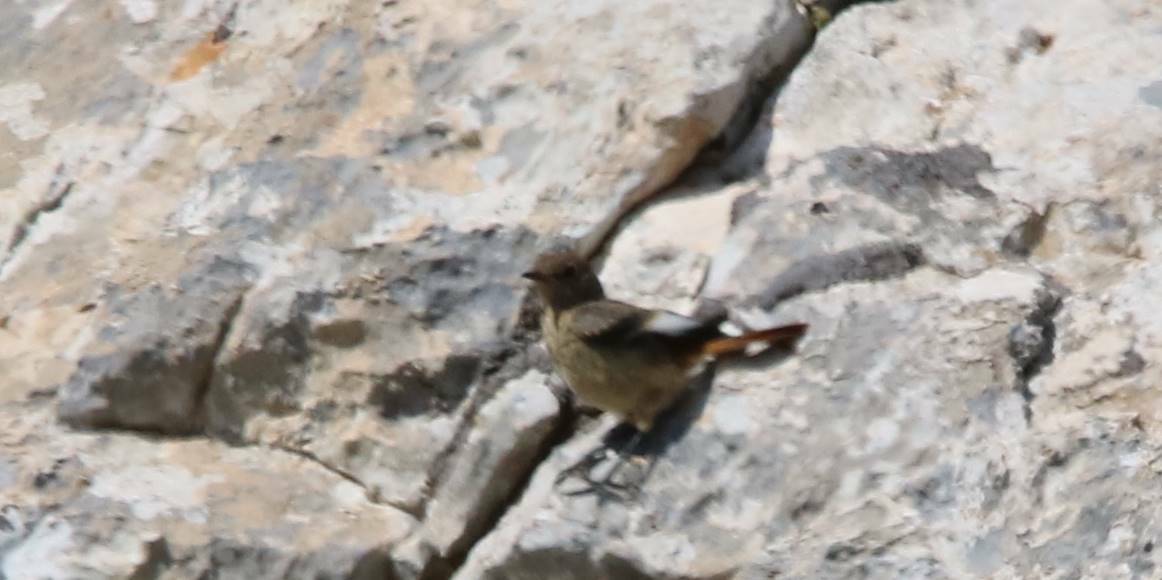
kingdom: Animalia
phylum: Chordata
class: Aves
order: Passeriformes
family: Muscicapidae
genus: Phoenicurus
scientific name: Phoenicurus moussieri
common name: Moussier's redstart
